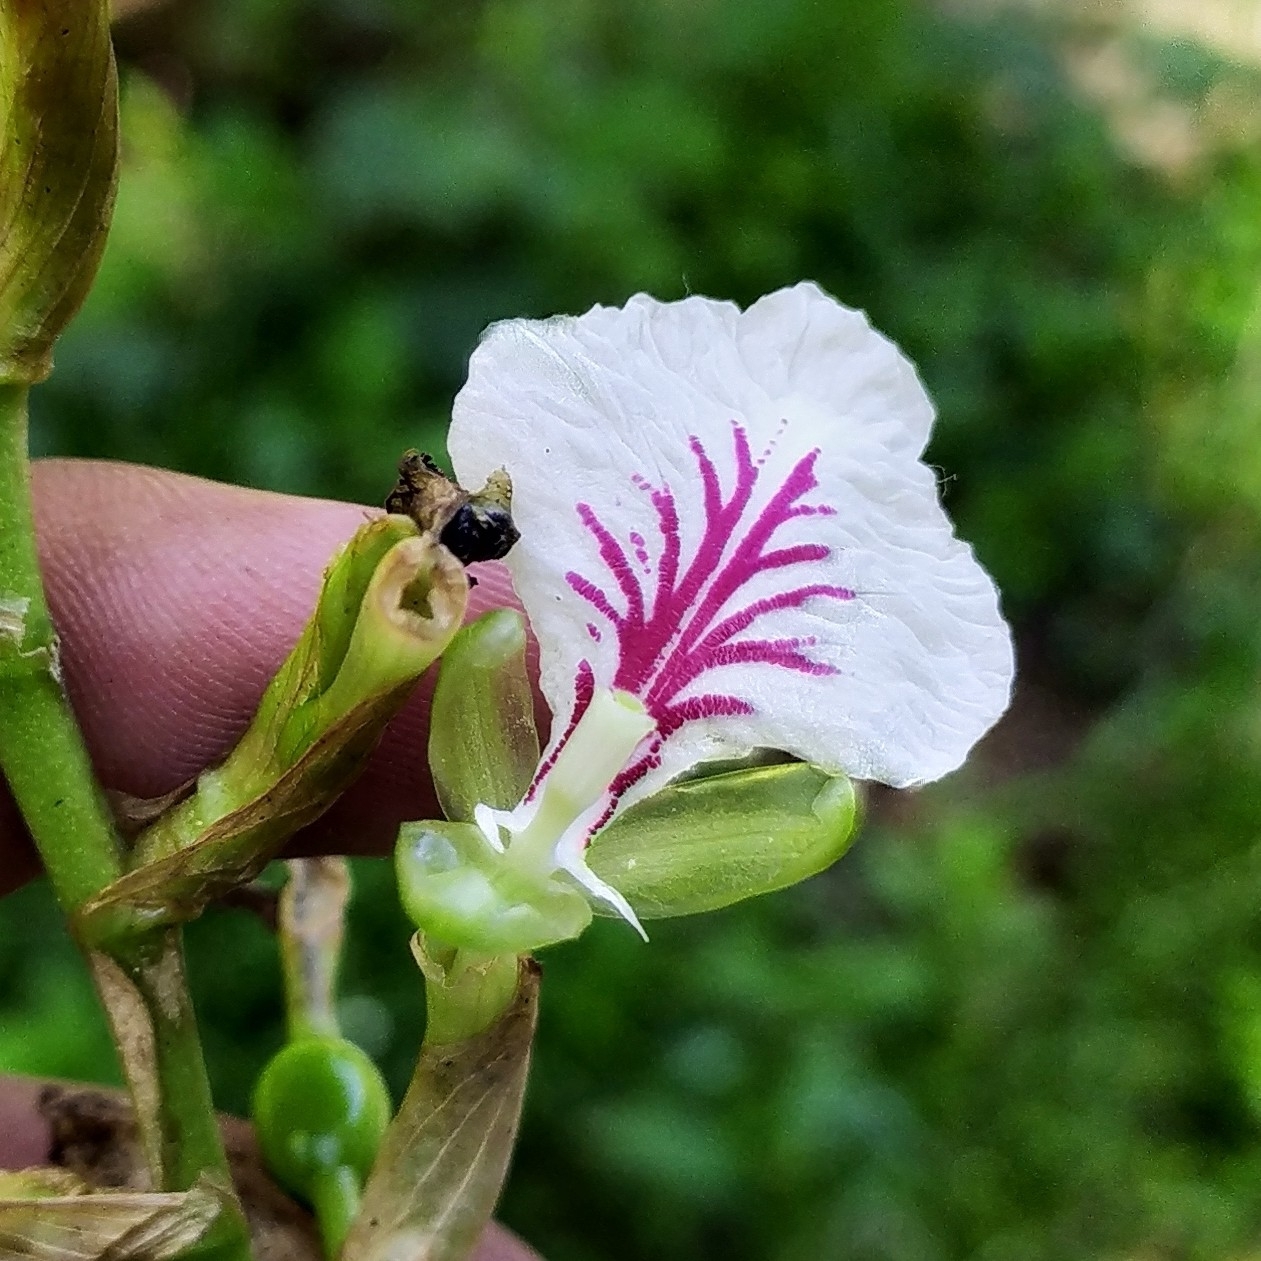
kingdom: Plantae
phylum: Tracheophyta
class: Liliopsida
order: Zingiberales
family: Zingiberaceae
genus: Elettaria
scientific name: Elettaria cardamomum
